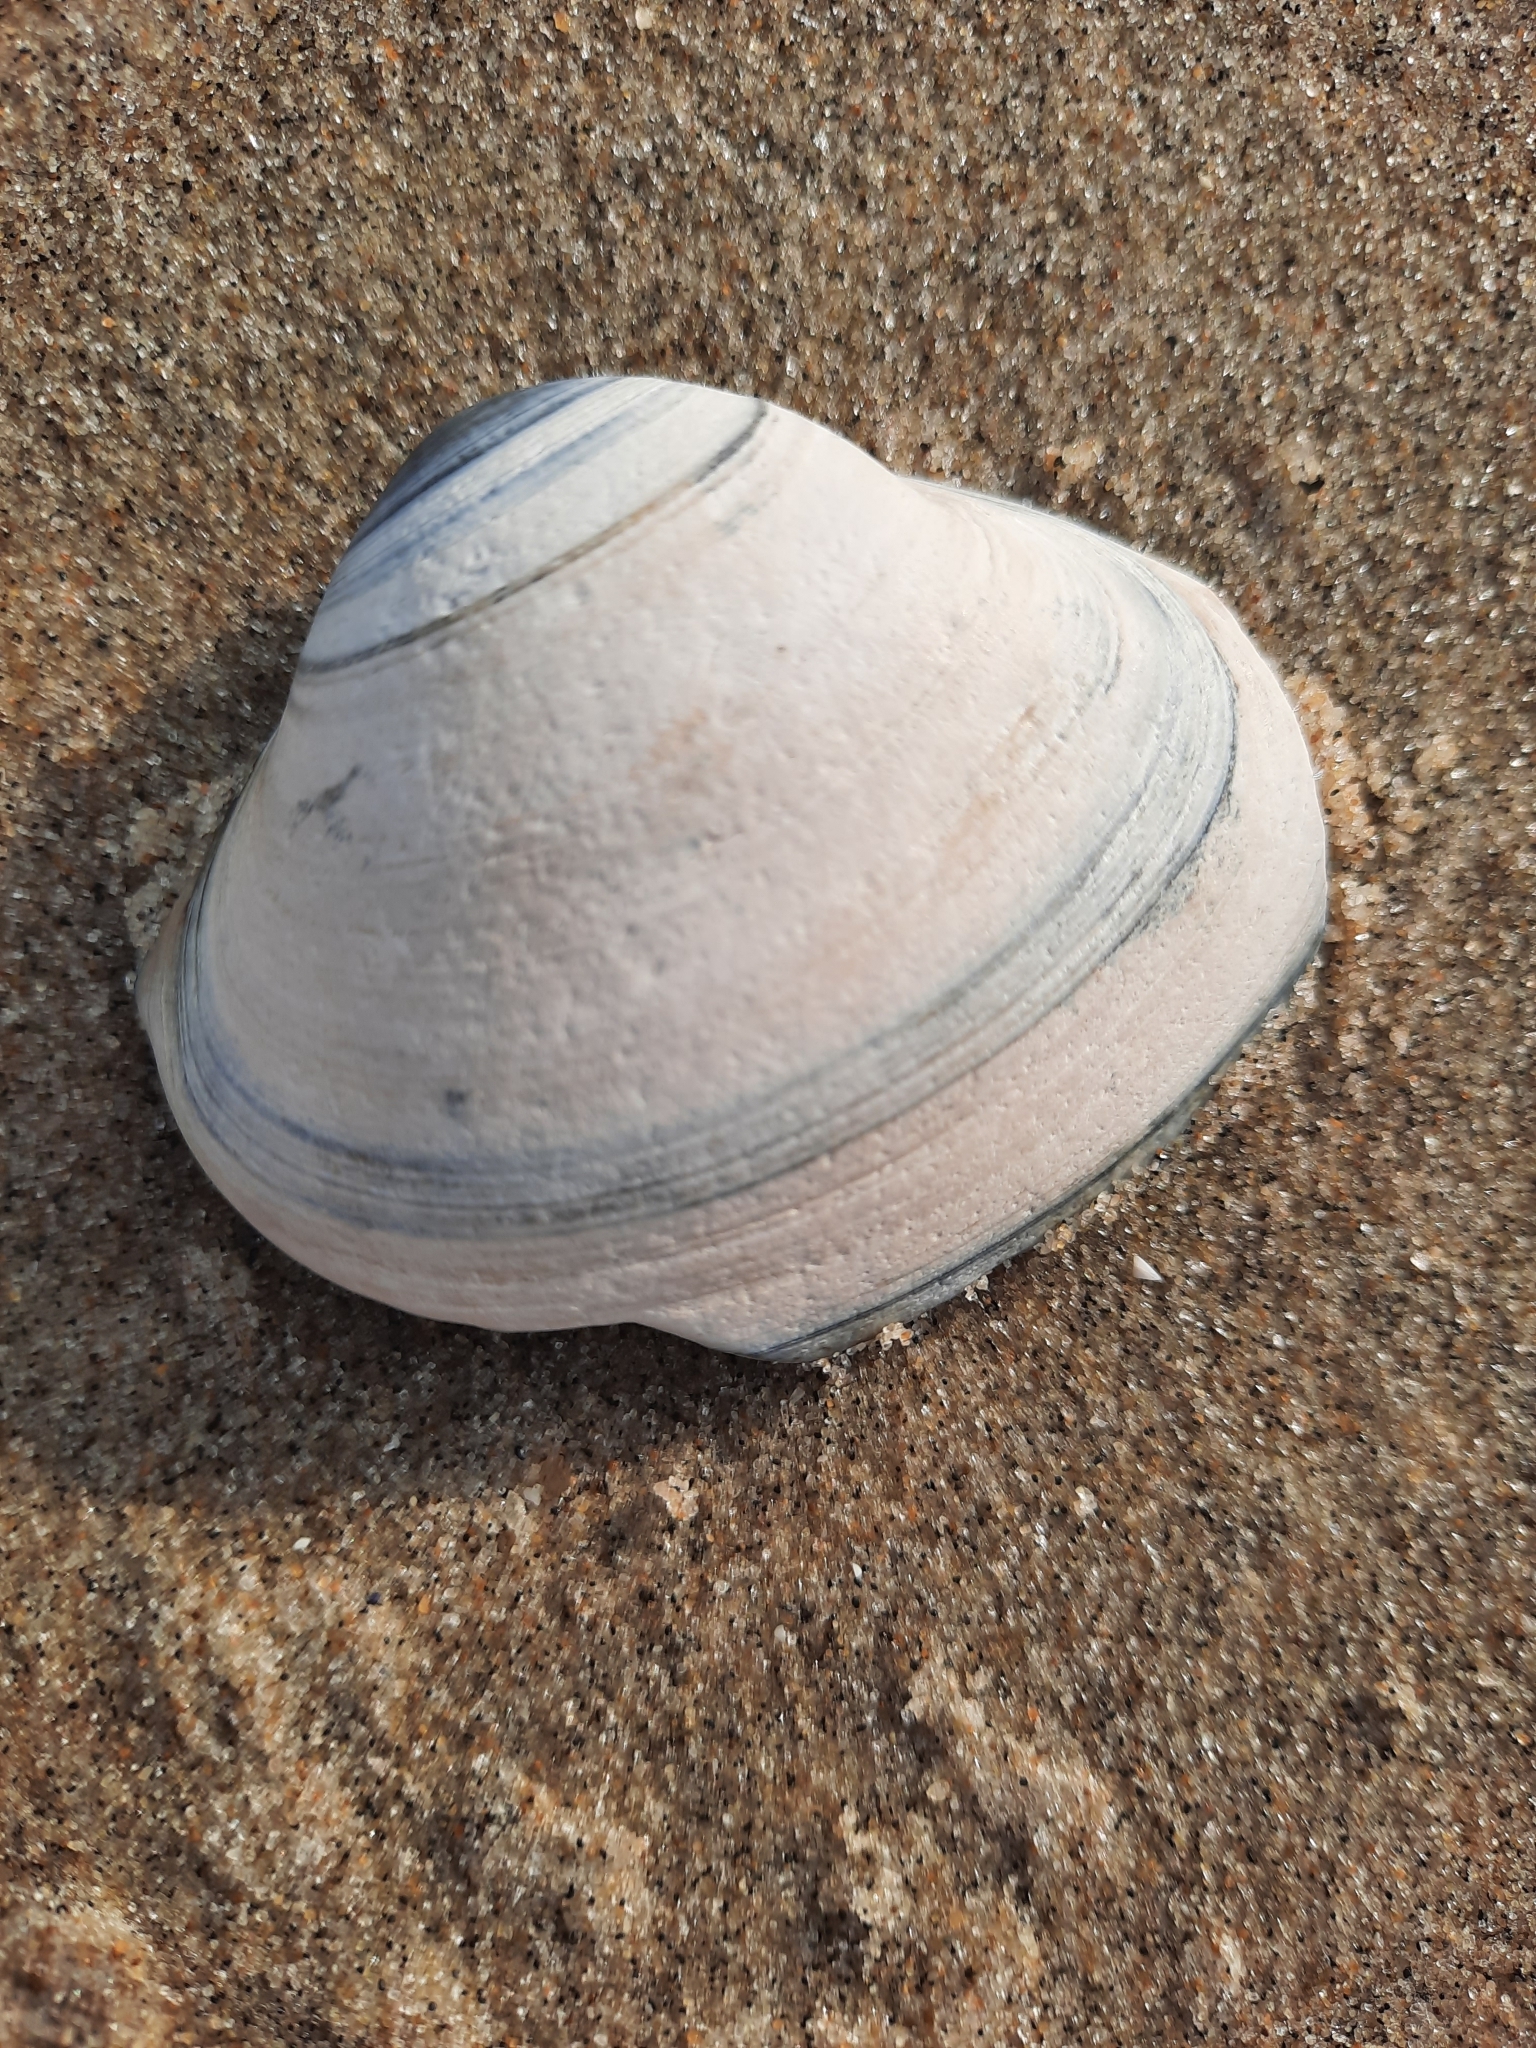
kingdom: Animalia
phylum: Mollusca
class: Bivalvia
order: Venerida
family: Mactridae
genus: Spisula
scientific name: Spisula solidissima
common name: Atlantic surf clam
